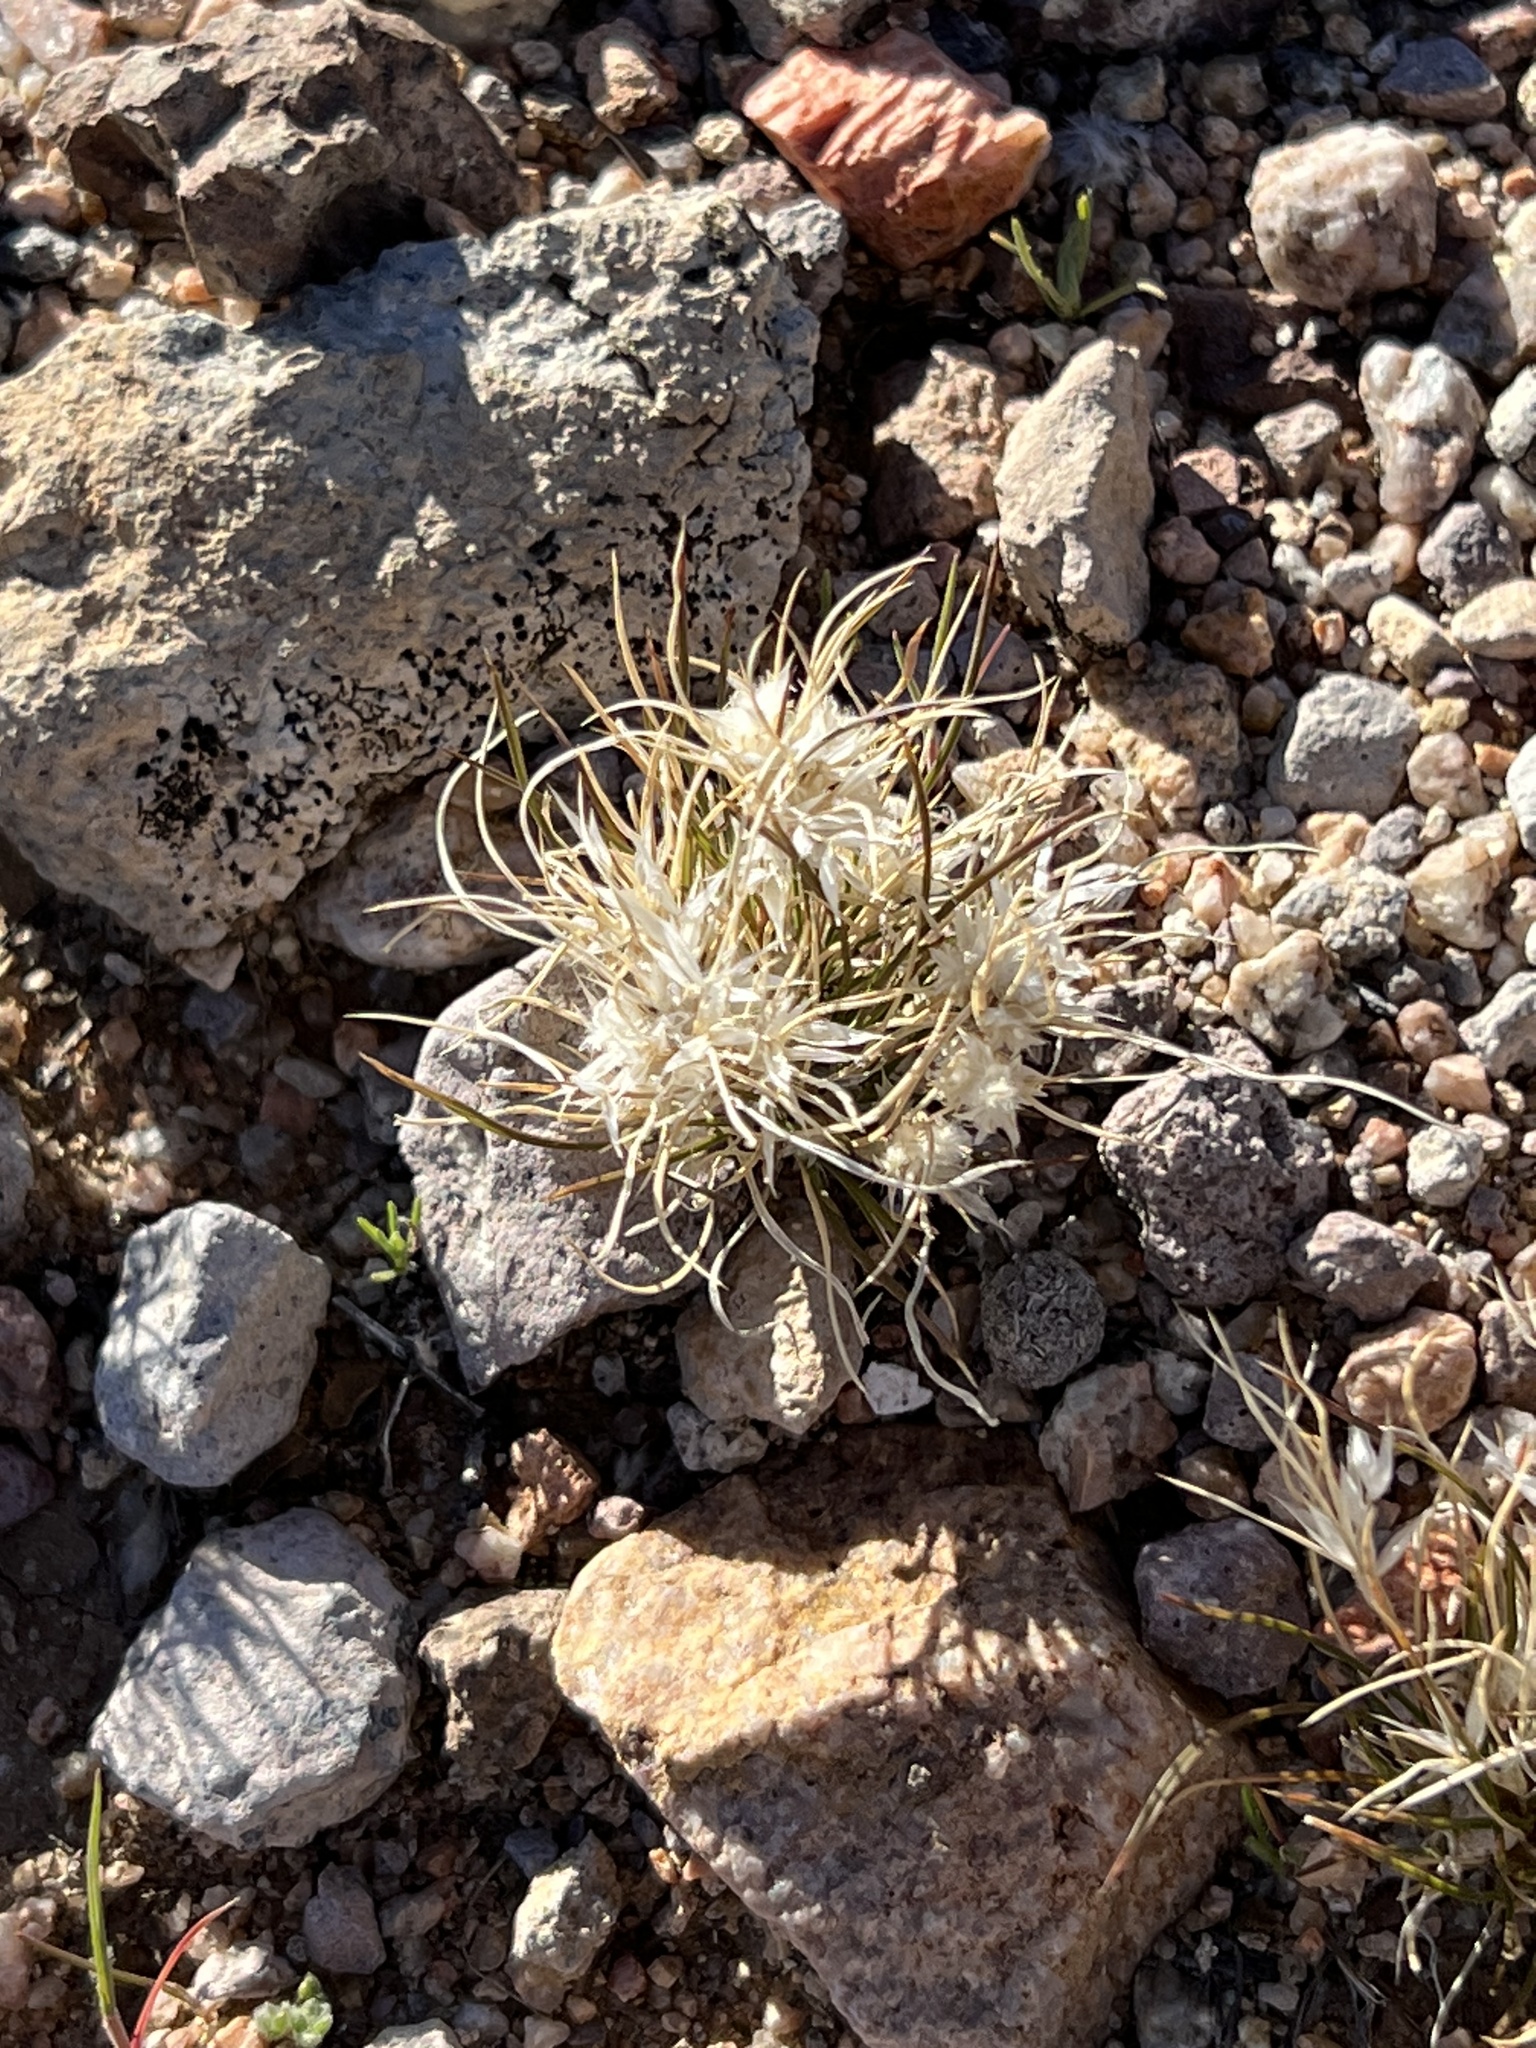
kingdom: Plantae
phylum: Tracheophyta
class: Liliopsida
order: Poales
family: Poaceae
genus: Dasyochloa
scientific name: Dasyochloa pulchella
